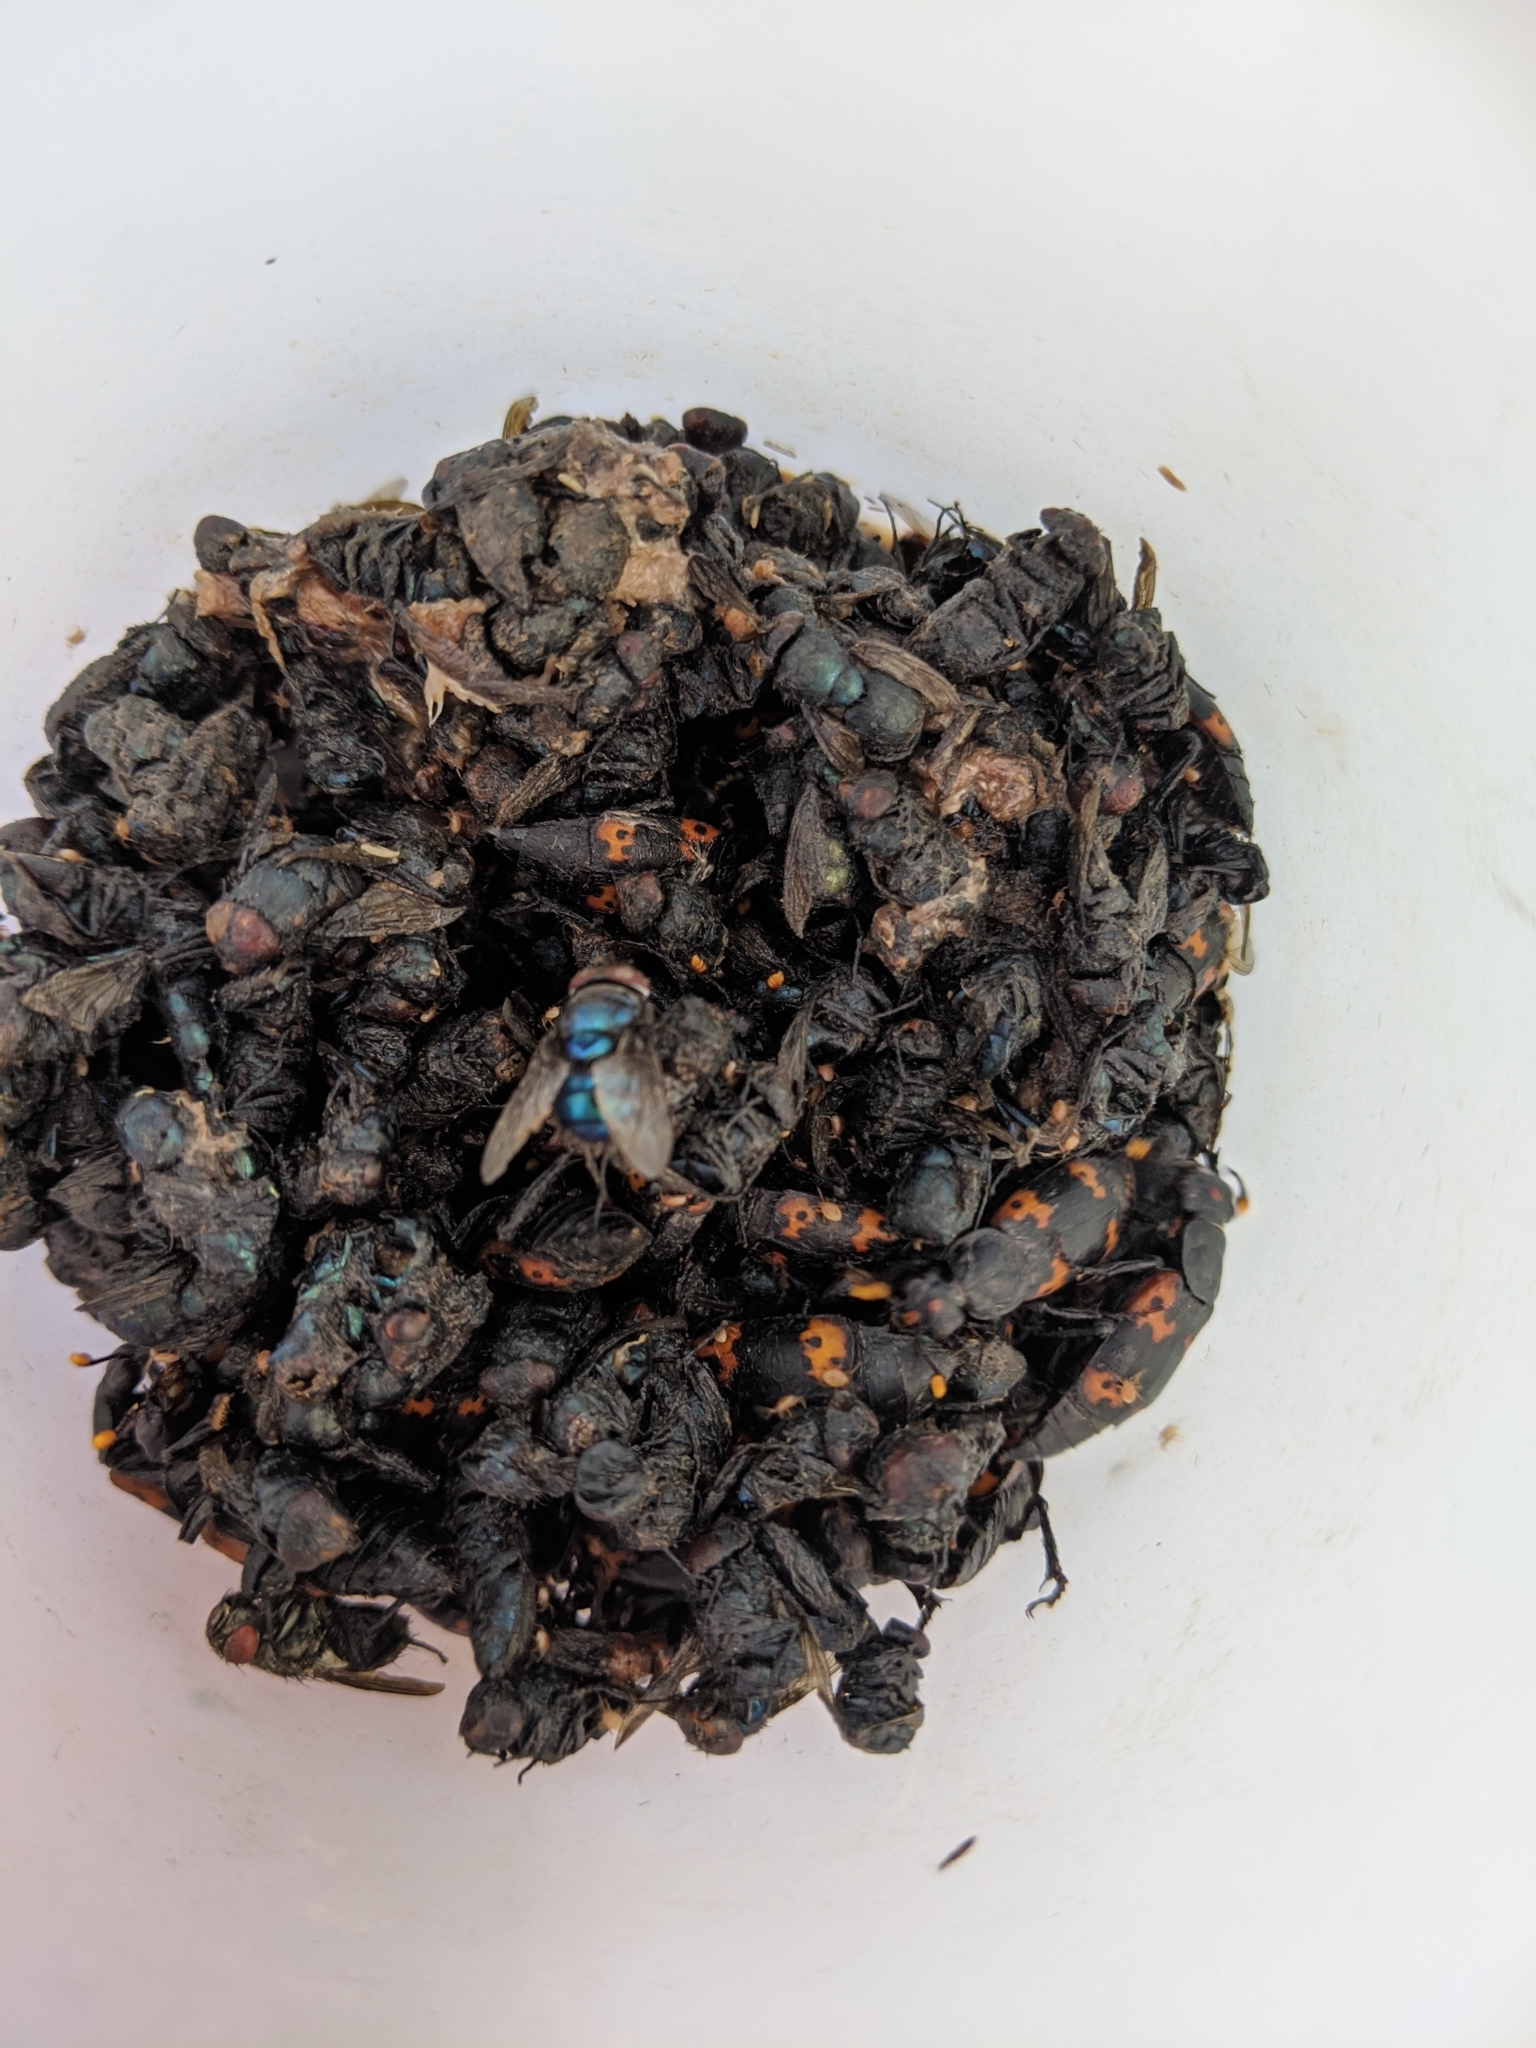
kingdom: Animalia
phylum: Arthropoda
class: Insecta
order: Coleoptera
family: Staphylinidae
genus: Nicrophorus
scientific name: Nicrophorus nepalensis
